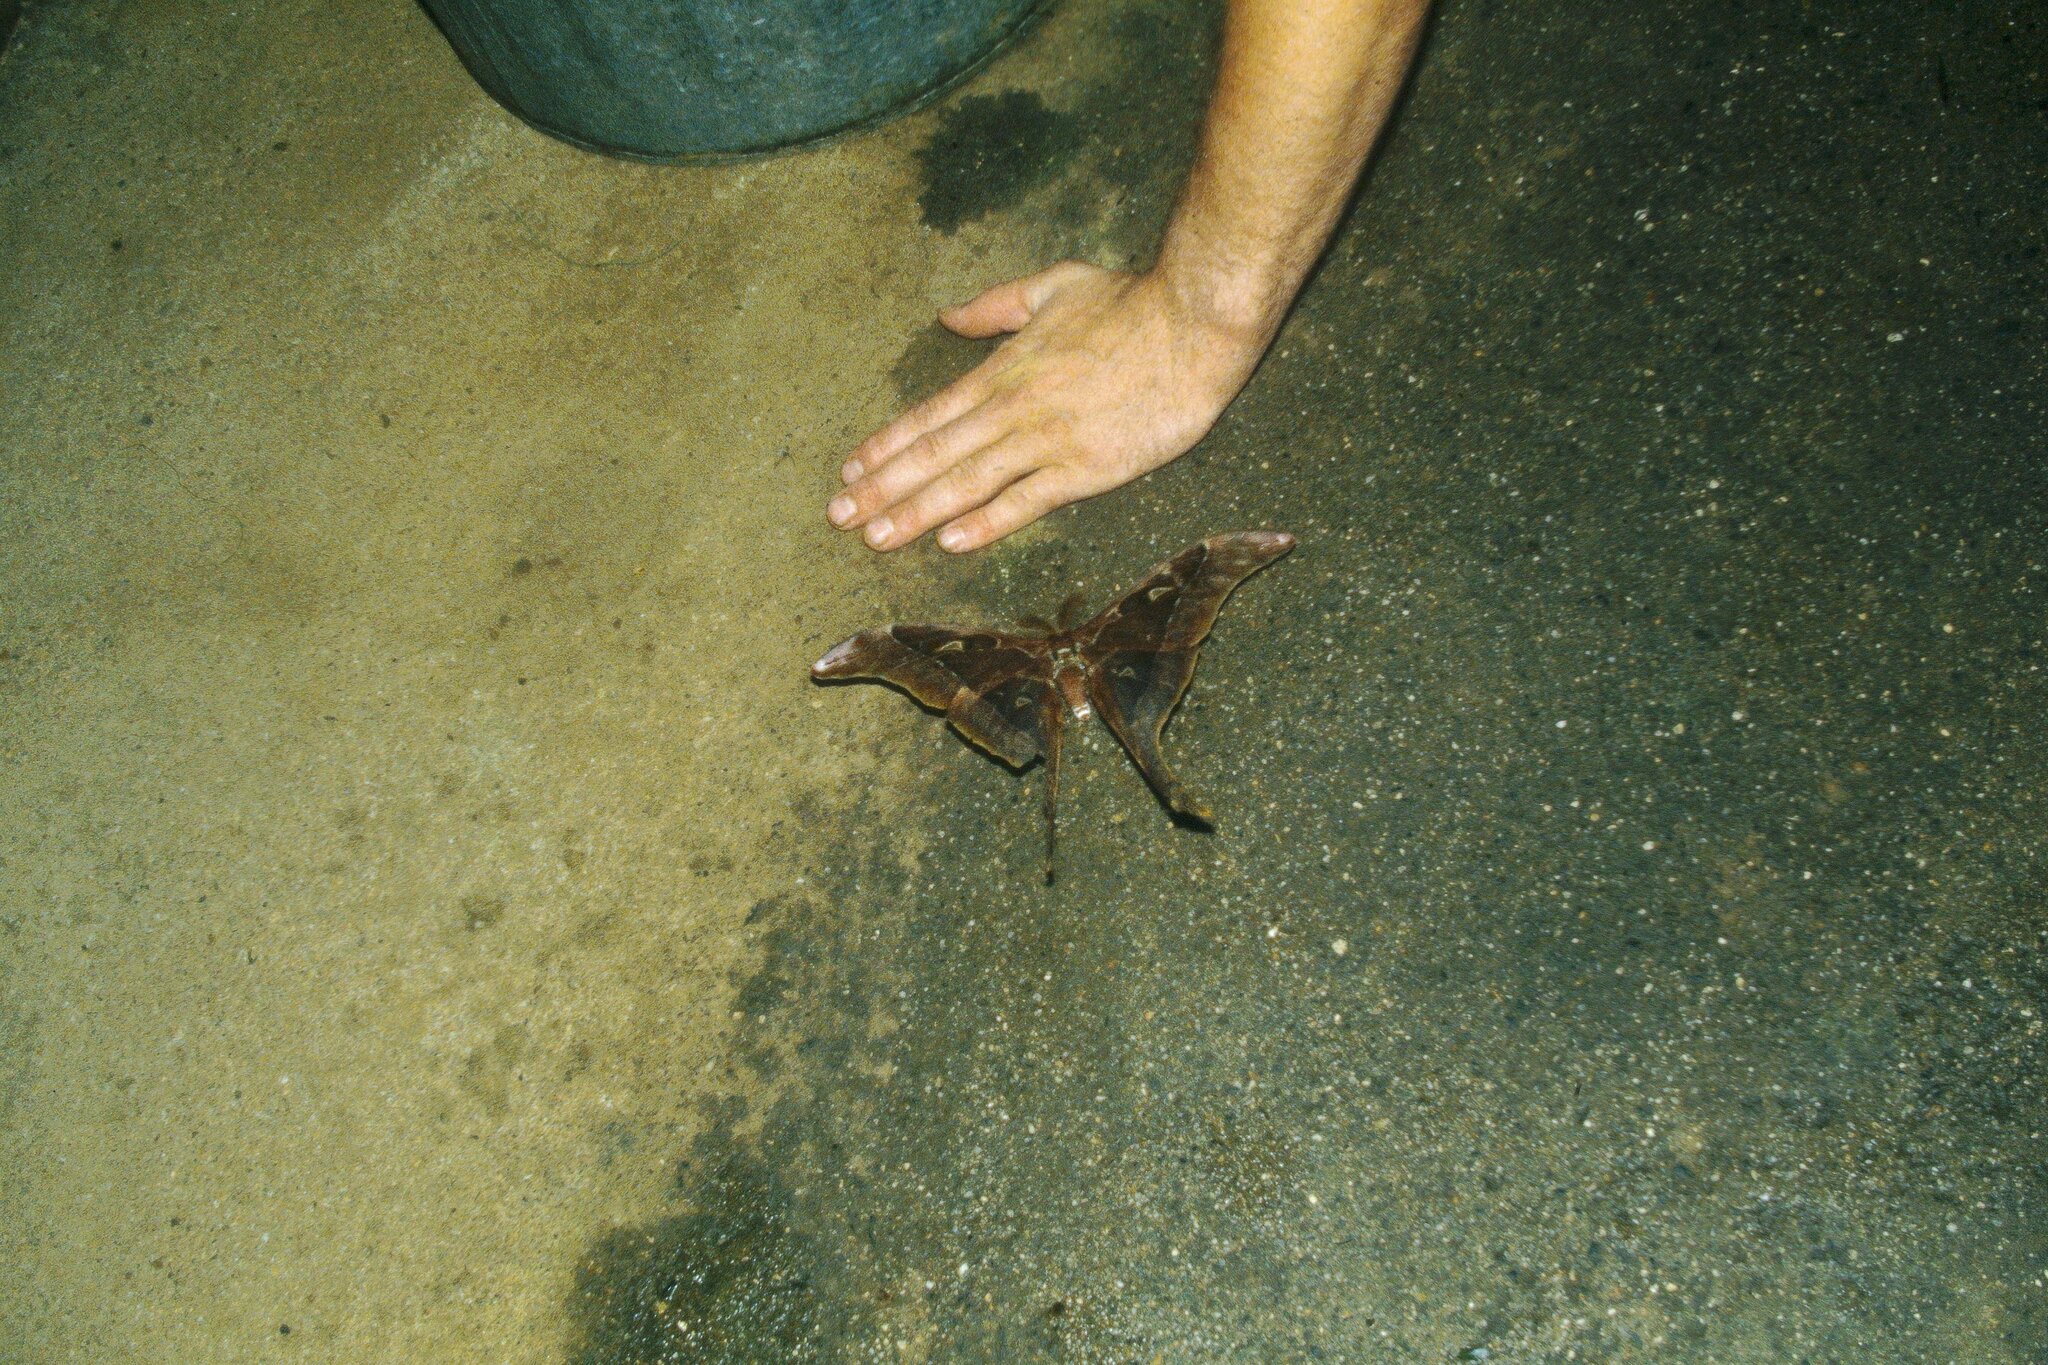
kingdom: Animalia
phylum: Arthropoda
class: Insecta
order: Lepidoptera
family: Saturniidae
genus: Coscinocera
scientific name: Coscinocera hercules
